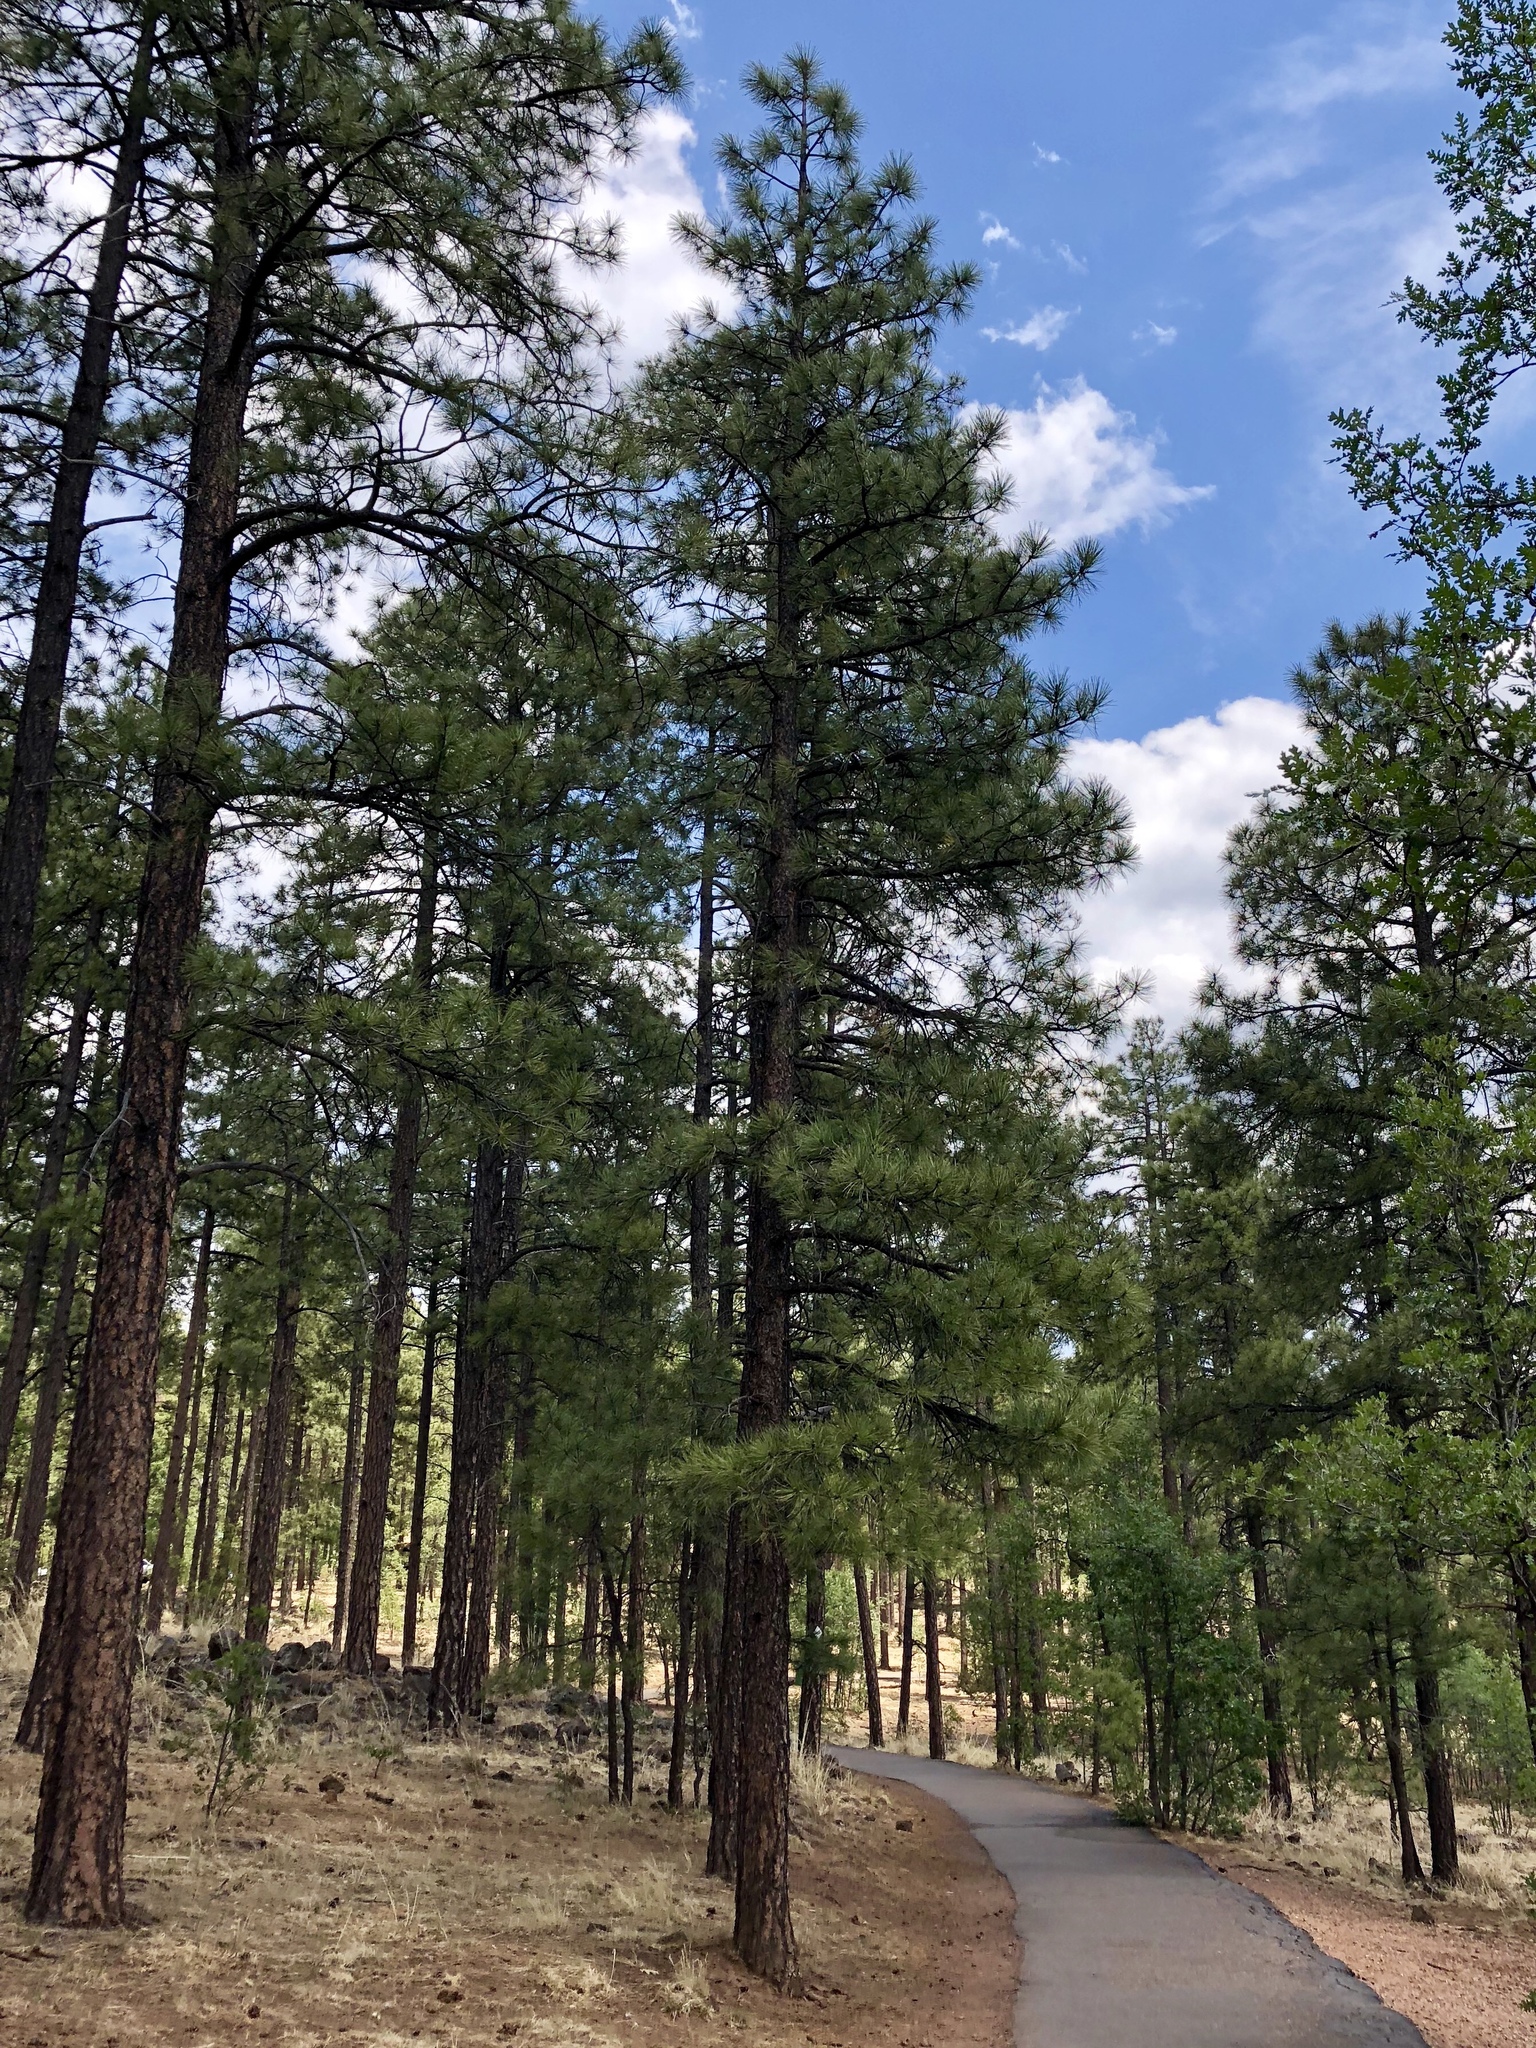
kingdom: Plantae
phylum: Tracheophyta
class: Pinopsida
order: Pinales
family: Pinaceae
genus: Pinus
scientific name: Pinus ponderosa
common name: Western yellow-pine
